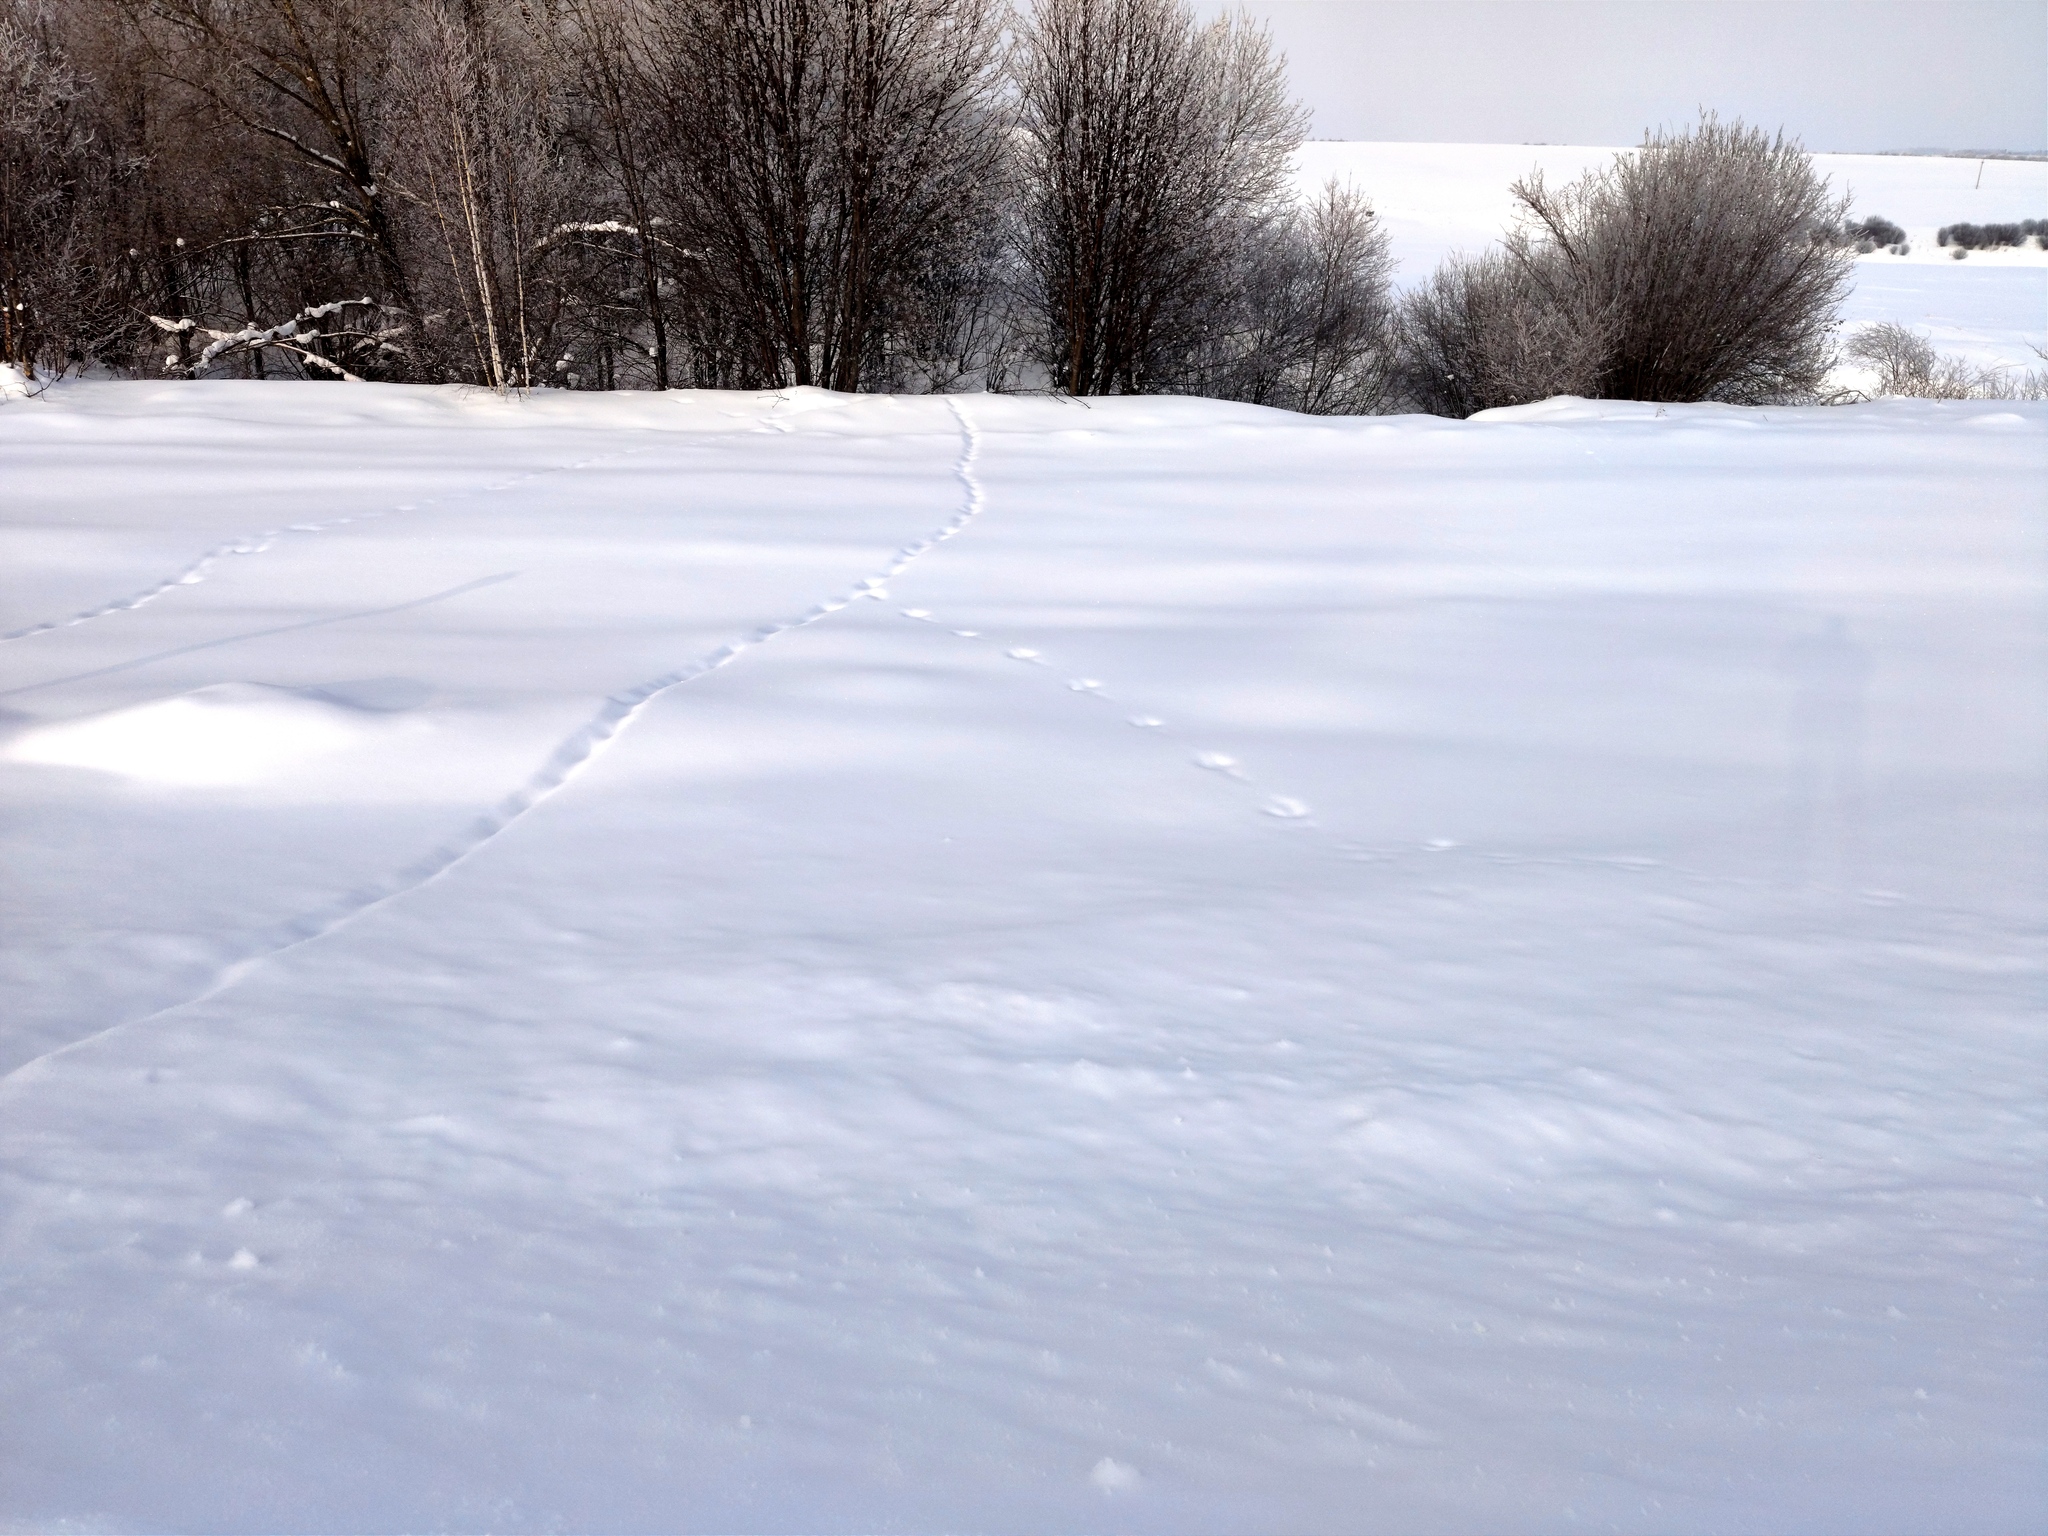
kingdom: Animalia
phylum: Chordata
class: Mammalia
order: Carnivora
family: Canidae
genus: Vulpes
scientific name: Vulpes vulpes
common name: Red fox
